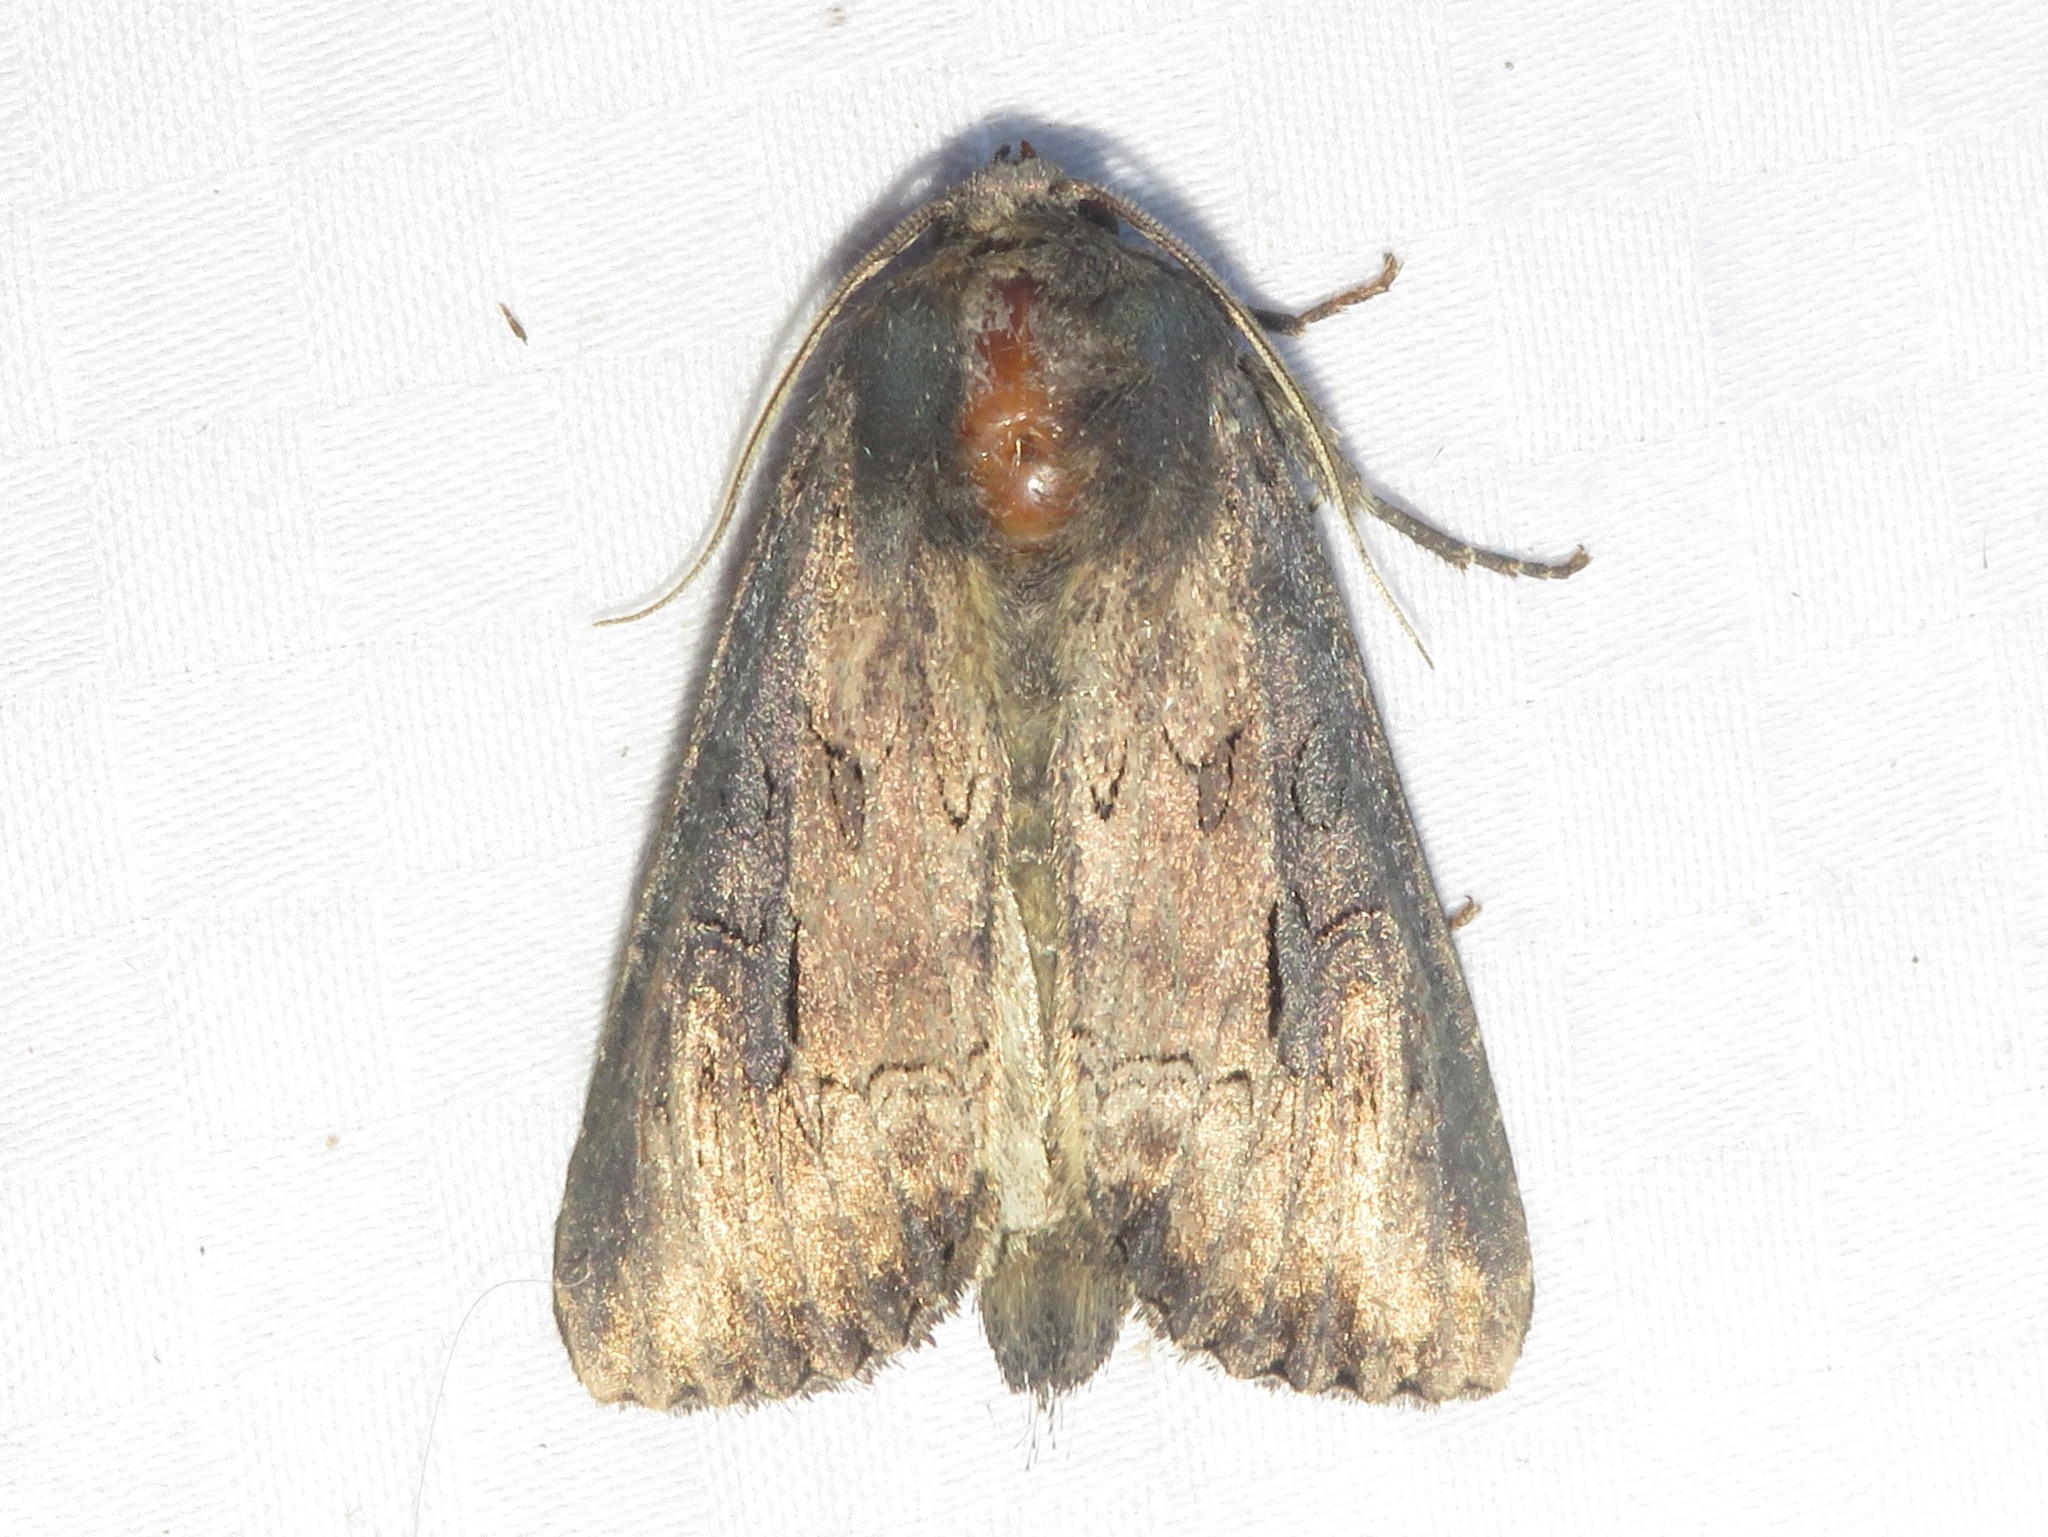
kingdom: Animalia
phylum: Arthropoda
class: Insecta
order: Lepidoptera
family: Noctuidae
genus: Macronoctua
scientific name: Macronoctua onusta
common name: Iris borer
